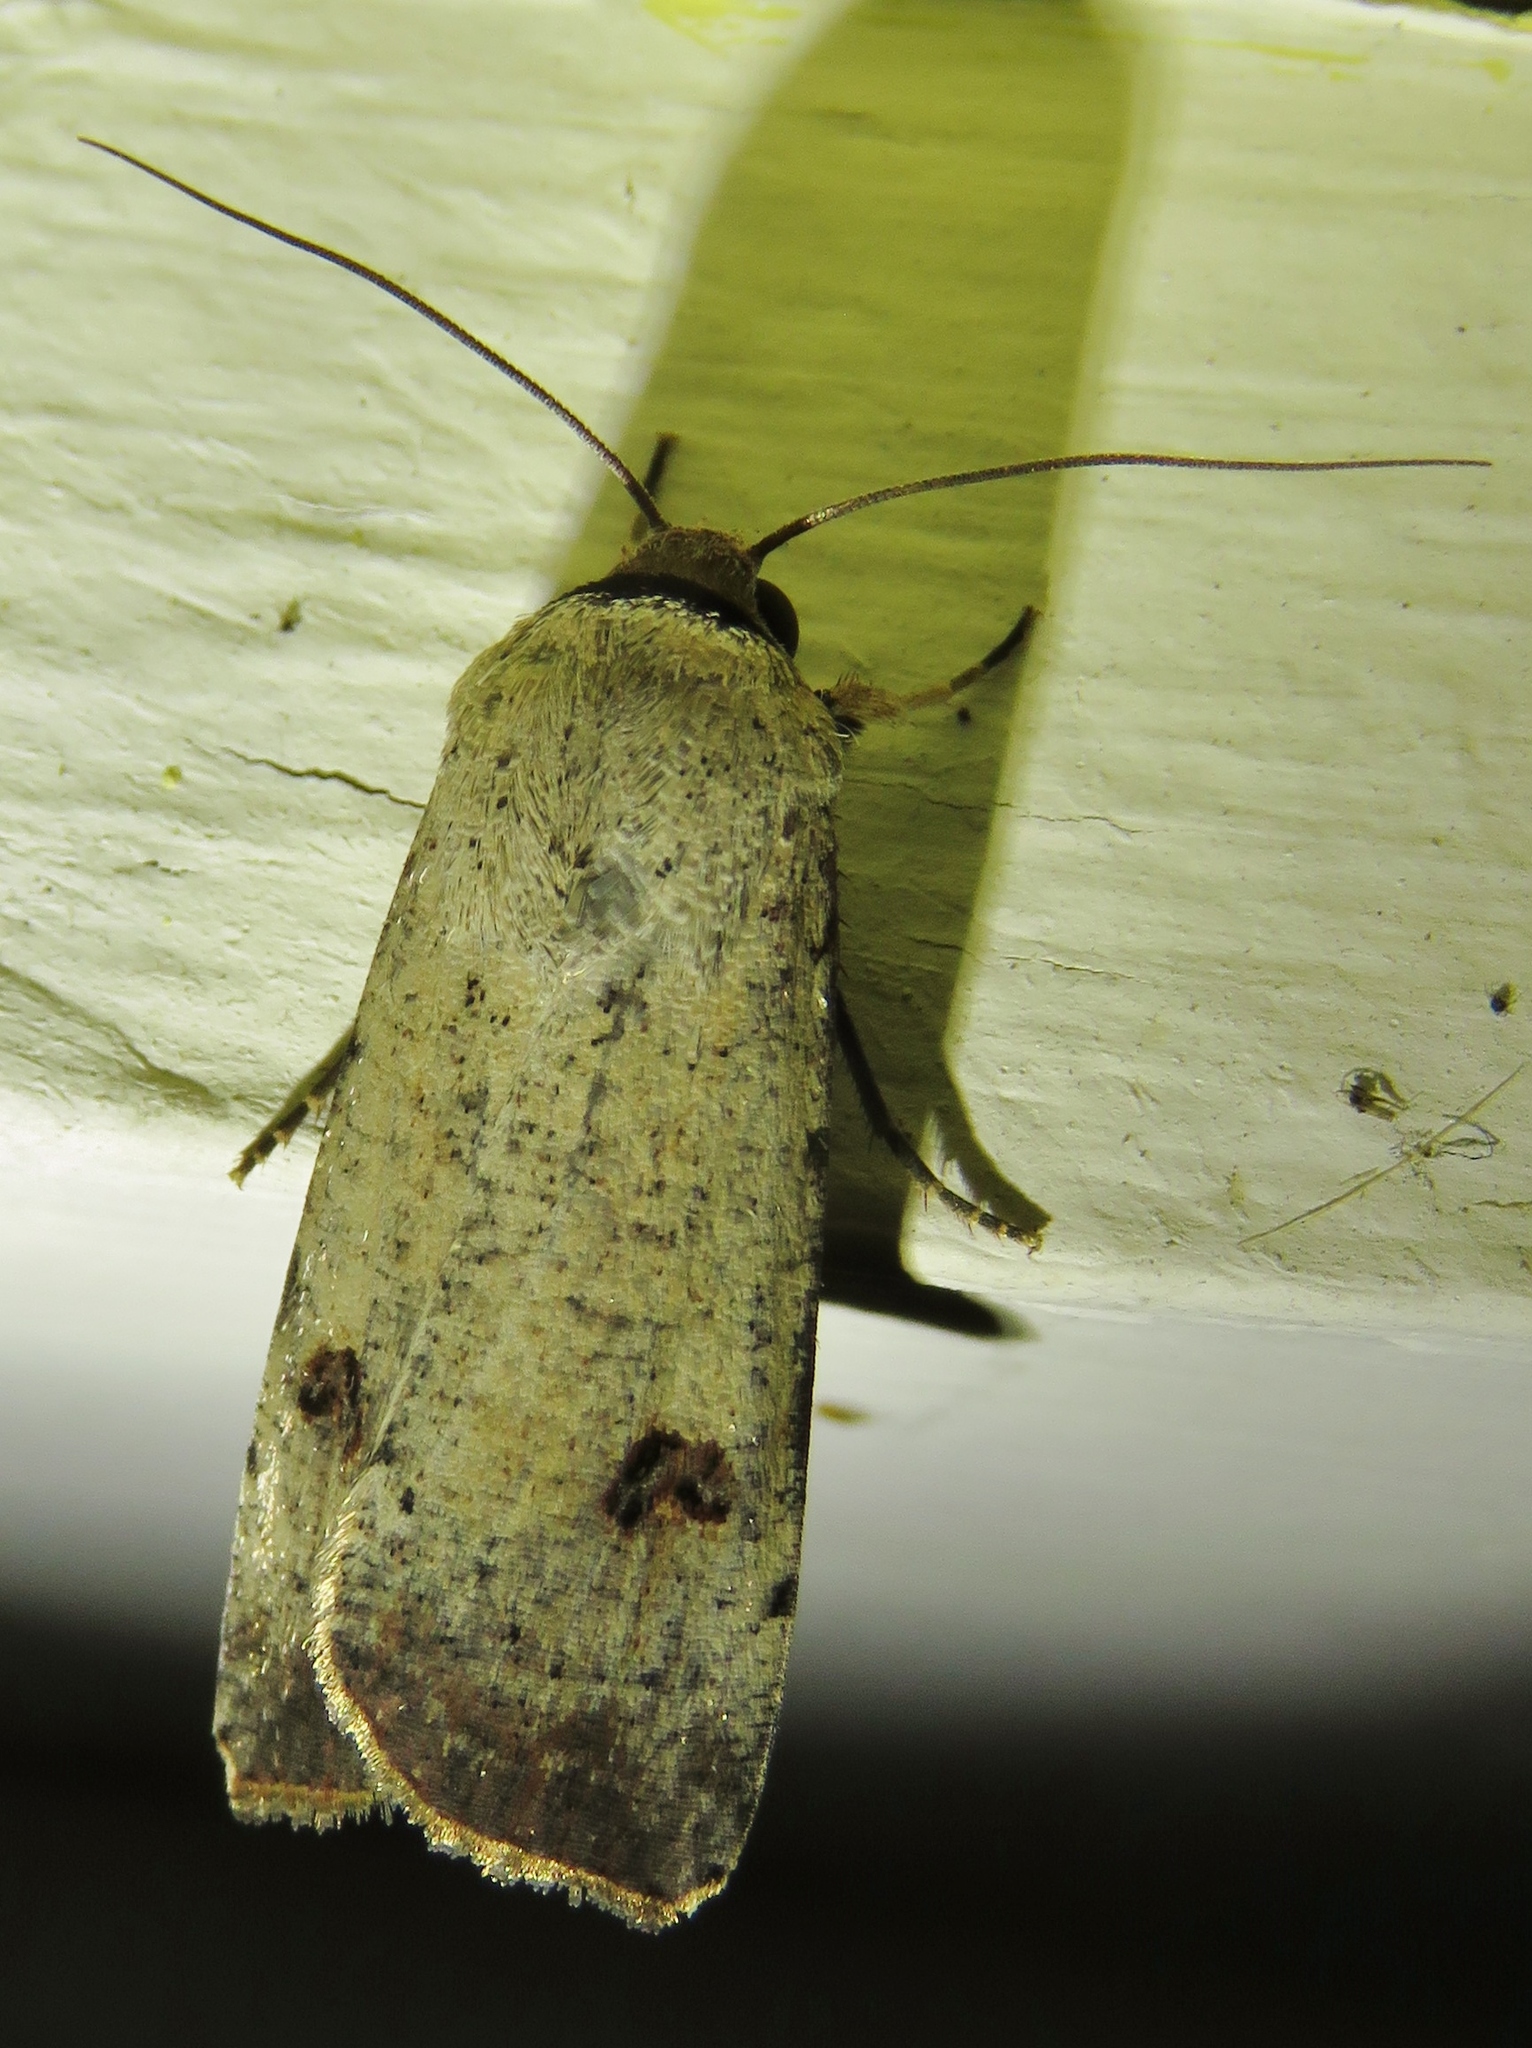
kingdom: Animalia
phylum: Arthropoda
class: Insecta
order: Lepidoptera
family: Noctuidae
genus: Anicla
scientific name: Anicla infecta
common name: Green cutworm
